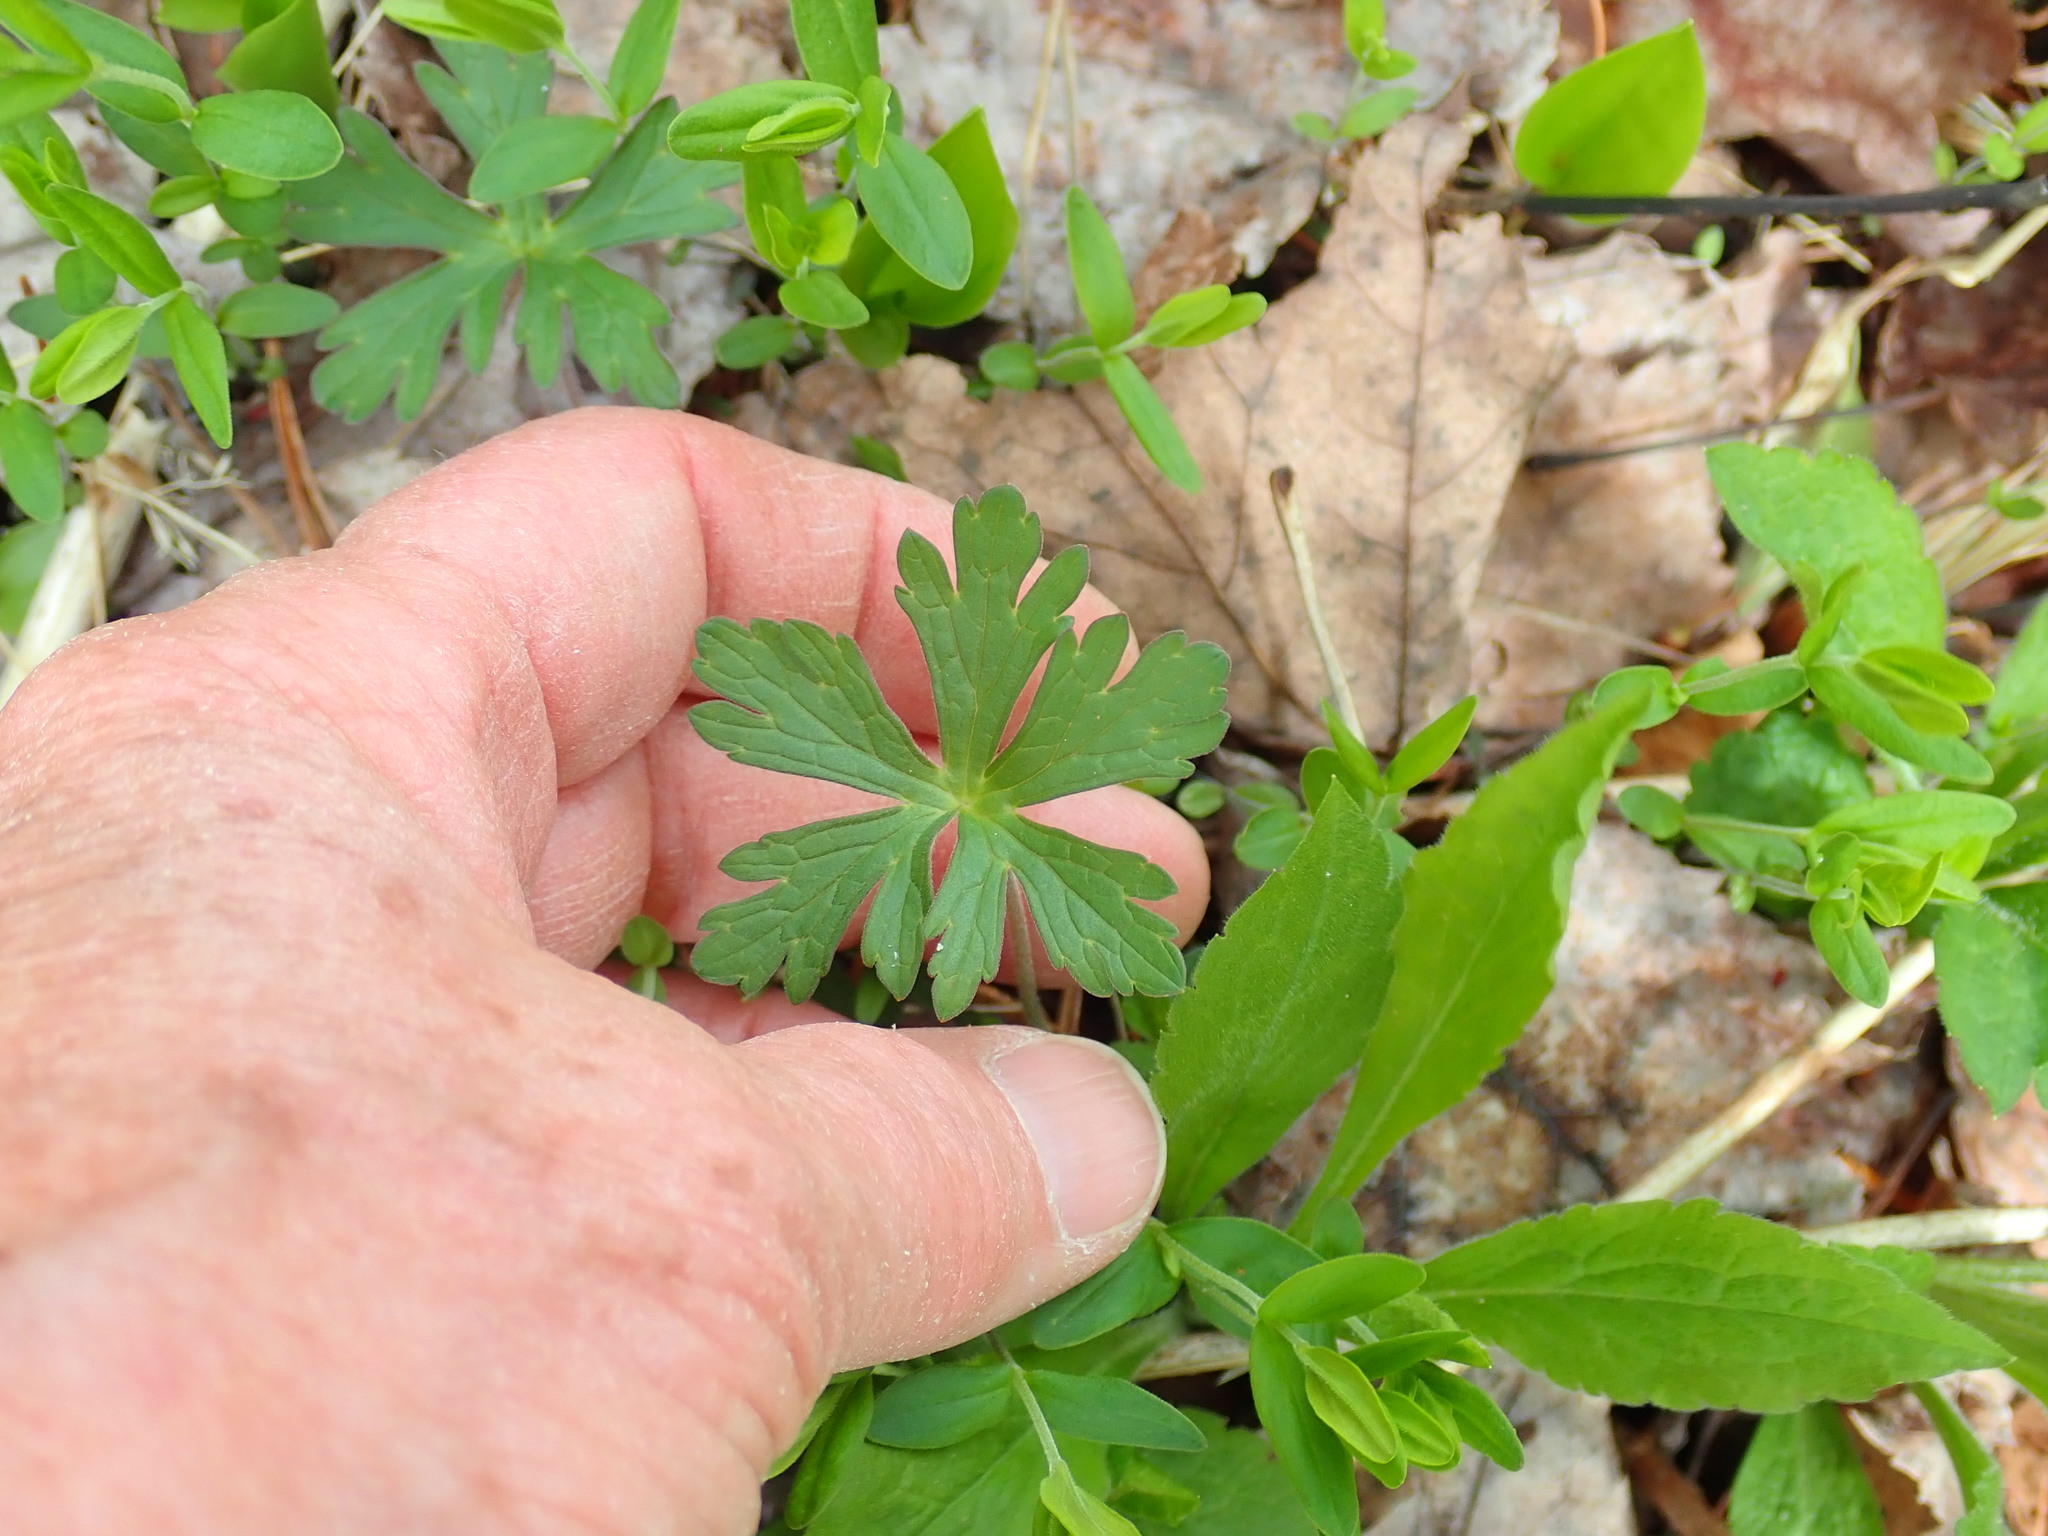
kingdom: Plantae
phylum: Tracheophyta
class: Magnoliopsida
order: Geraniales
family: Geraniaceae
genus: Geranium
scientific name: Geranium maculatum
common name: Spotted geranium
